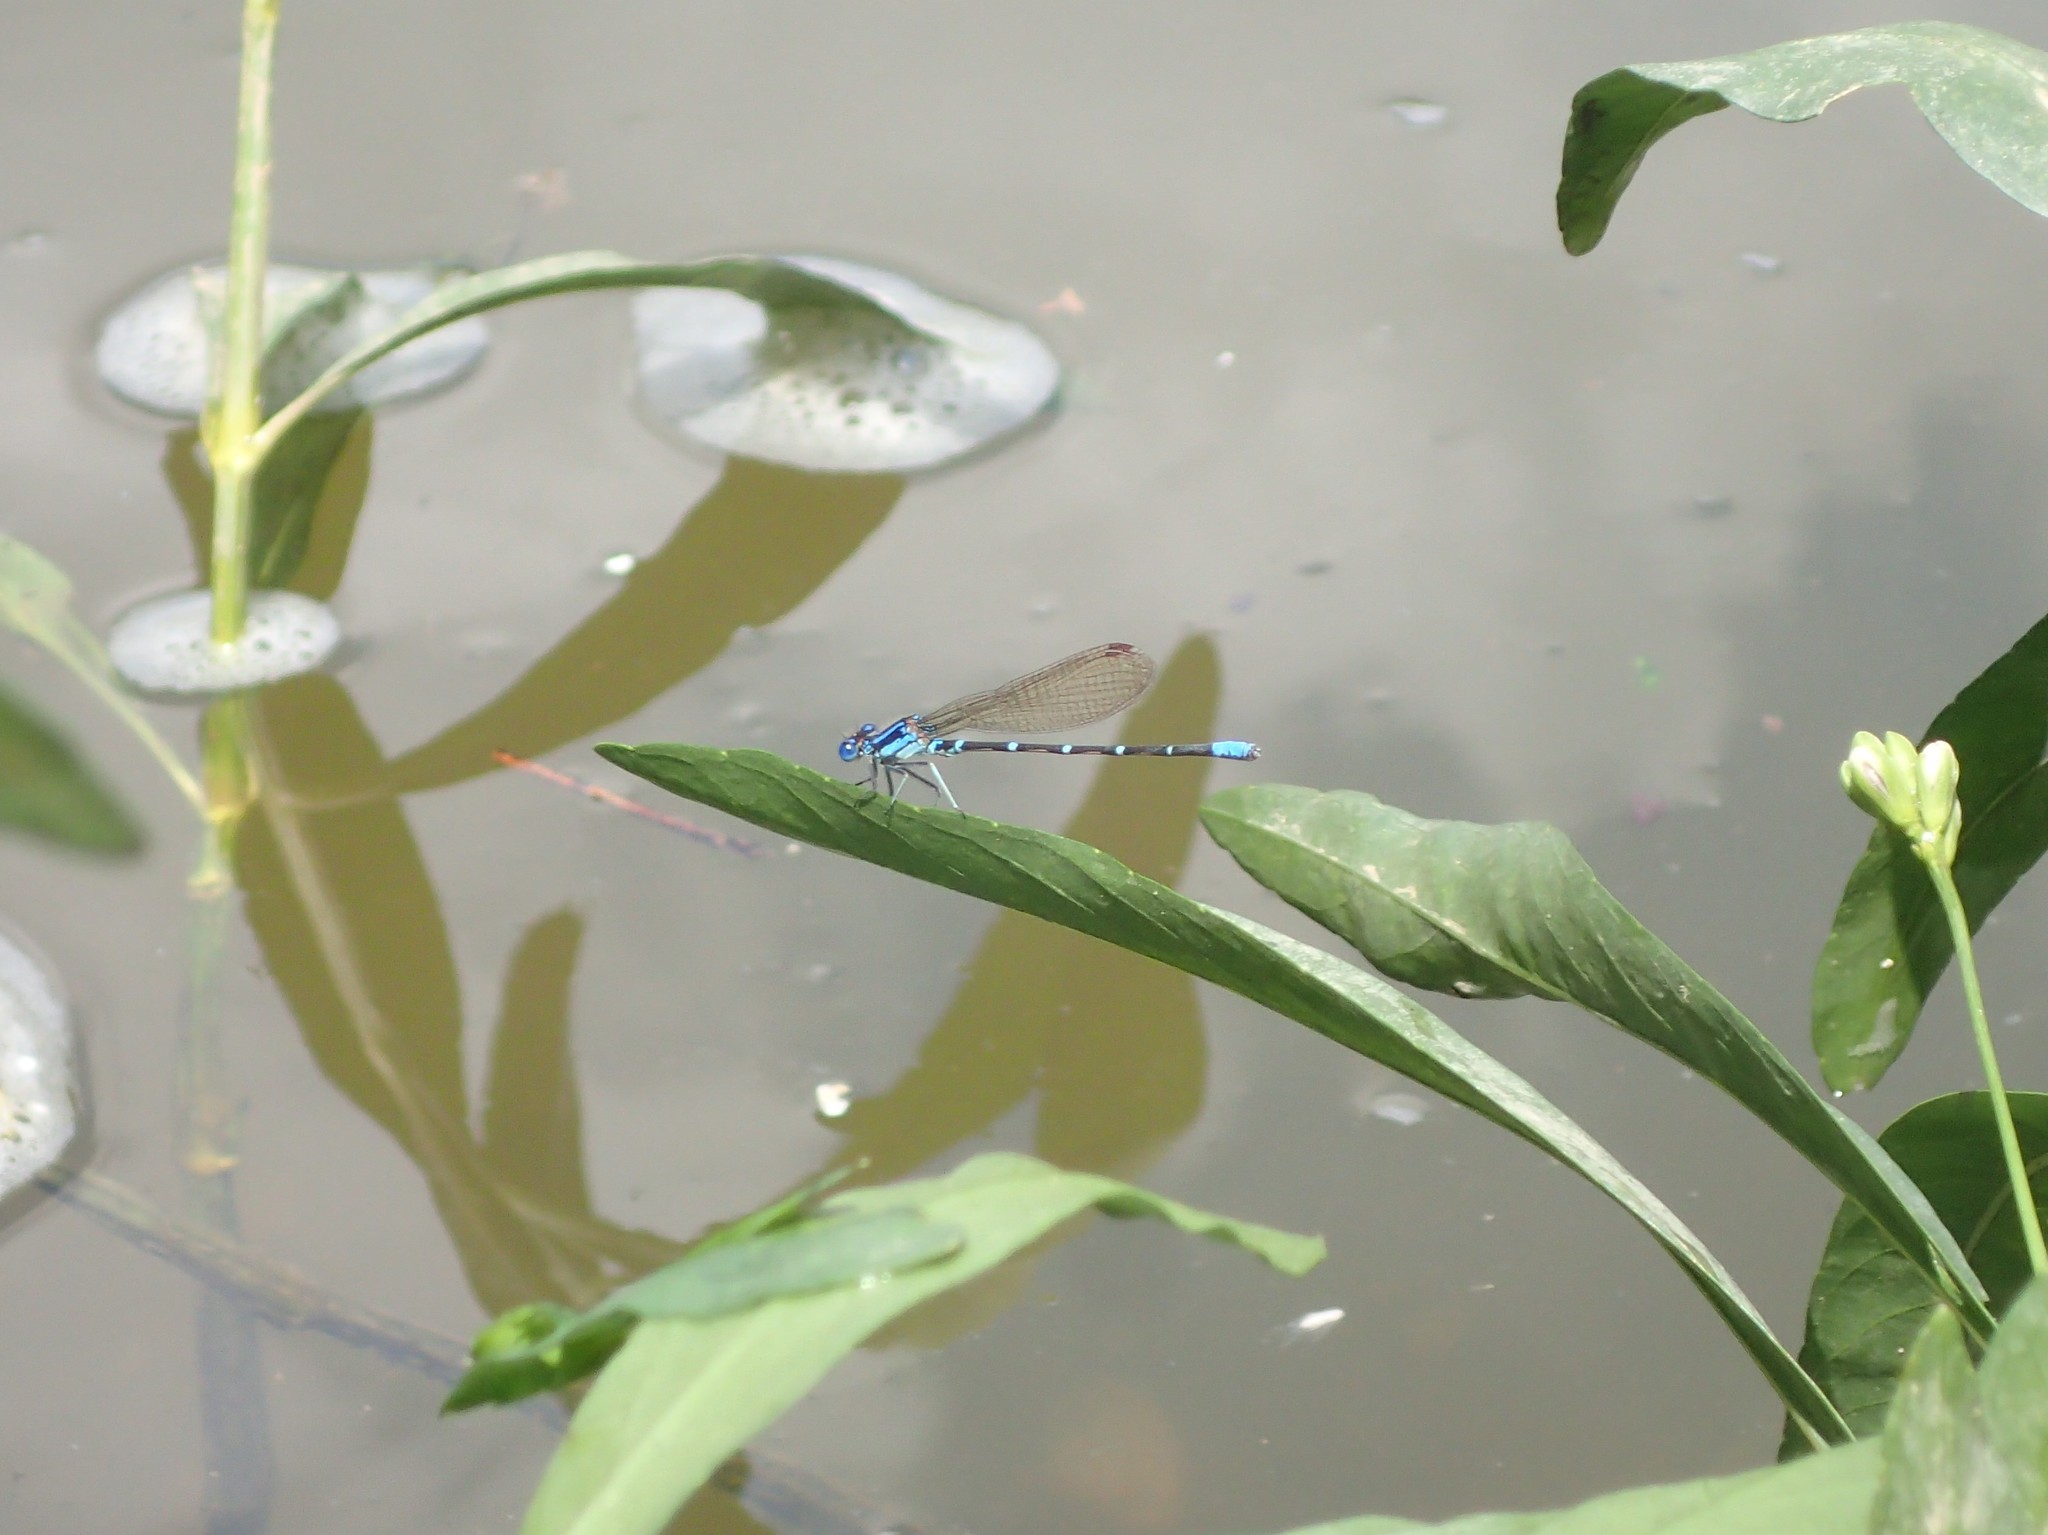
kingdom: Animalia
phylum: Arthropoda
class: Insecta
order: Odonata
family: Coenagrionidae
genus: Argia
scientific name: Argia sedula
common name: Blue-ringed dancer
